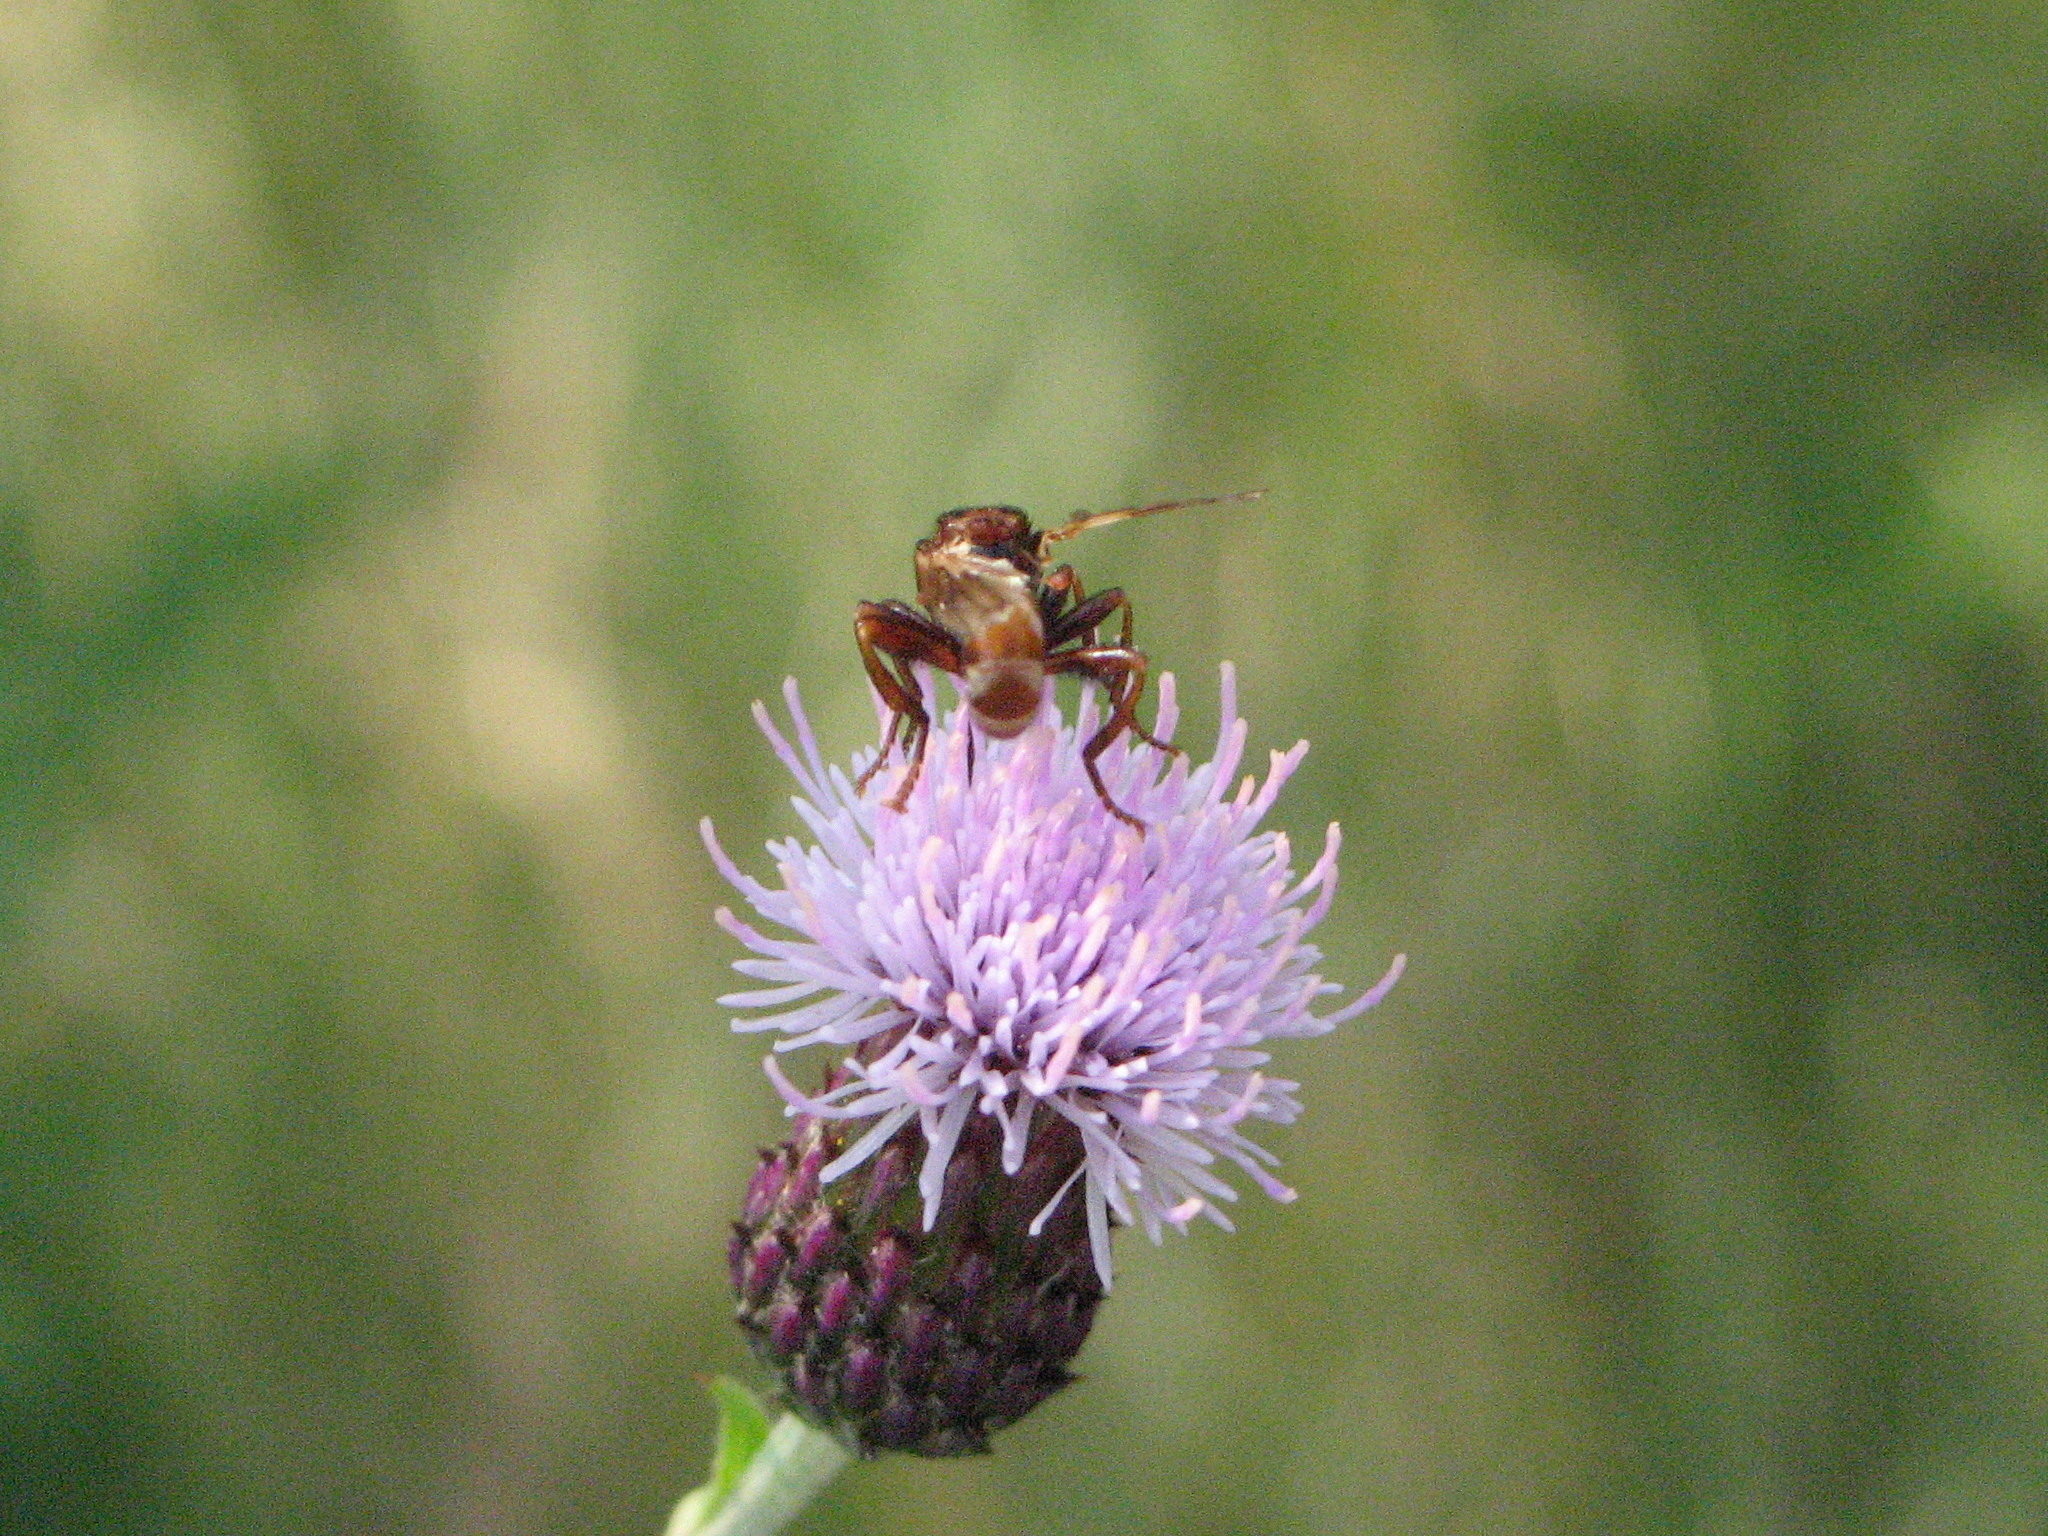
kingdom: Animalia
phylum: Arthropoda
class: Insecta
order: Diptera
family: Conopidae
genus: Sicus
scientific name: Sicus ferrugineus
